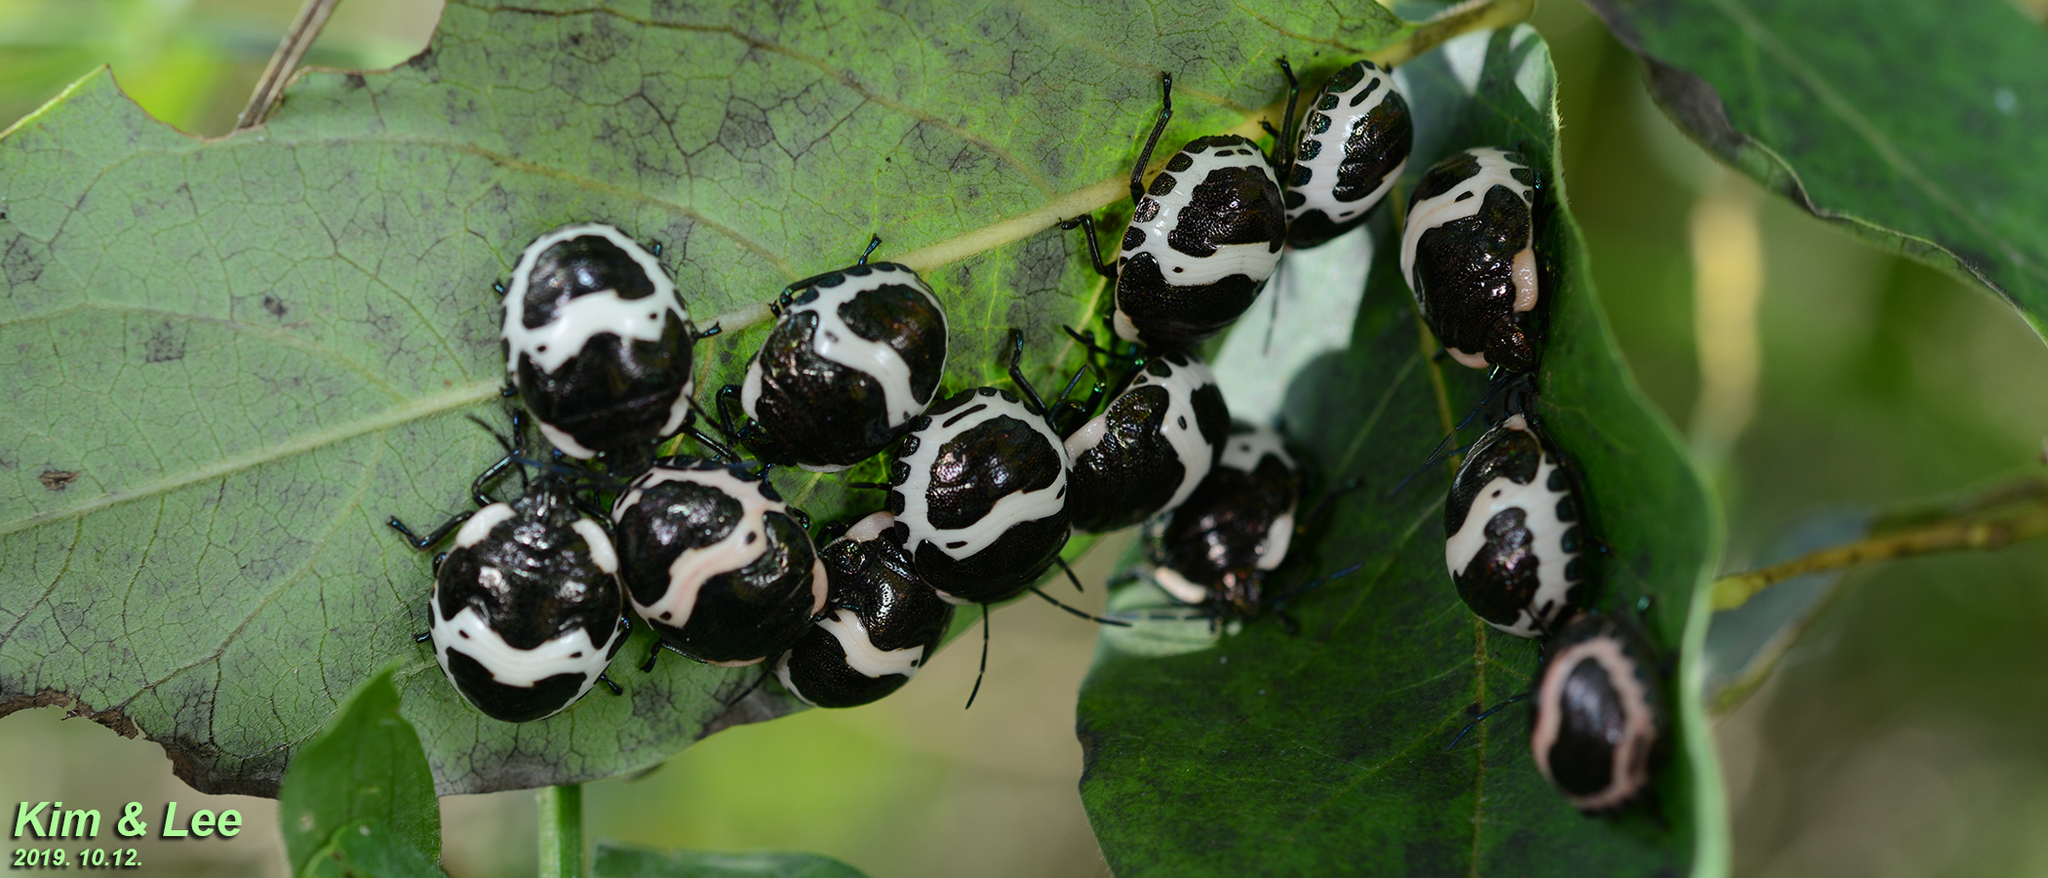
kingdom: Animalia
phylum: Arthropoda
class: Insecta
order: Hemiptera
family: Scutelleridae
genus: Poecilocoris
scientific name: Poecilocoris lewisi
